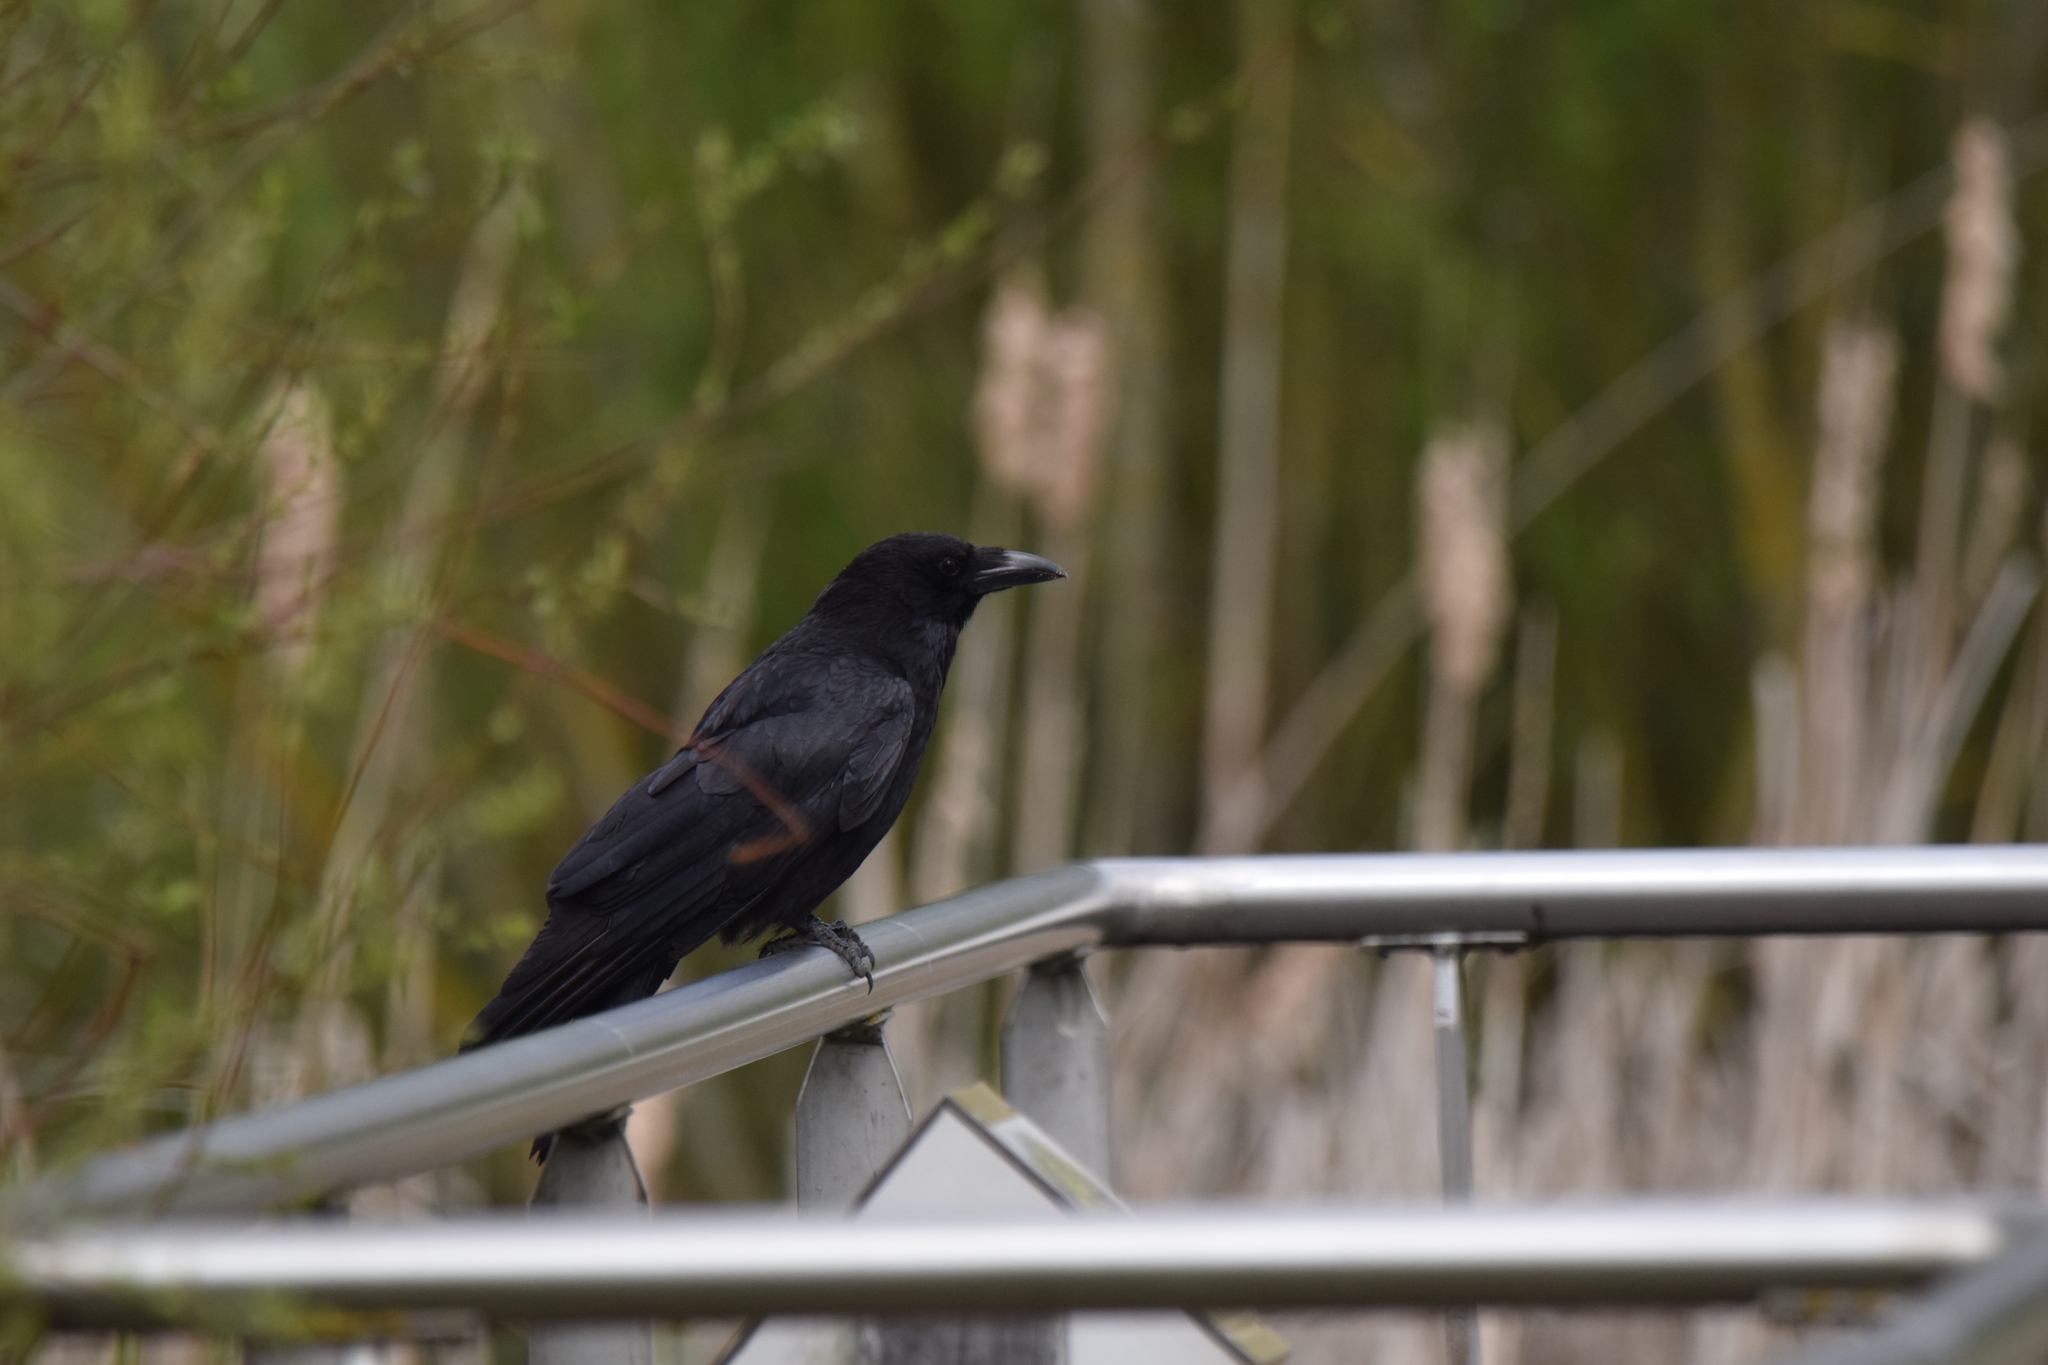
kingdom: Animalia
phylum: Chordata
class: Aves
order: Passeriformes
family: Corvidae
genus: Corvus
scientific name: Corvus corone
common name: Carrion crow
